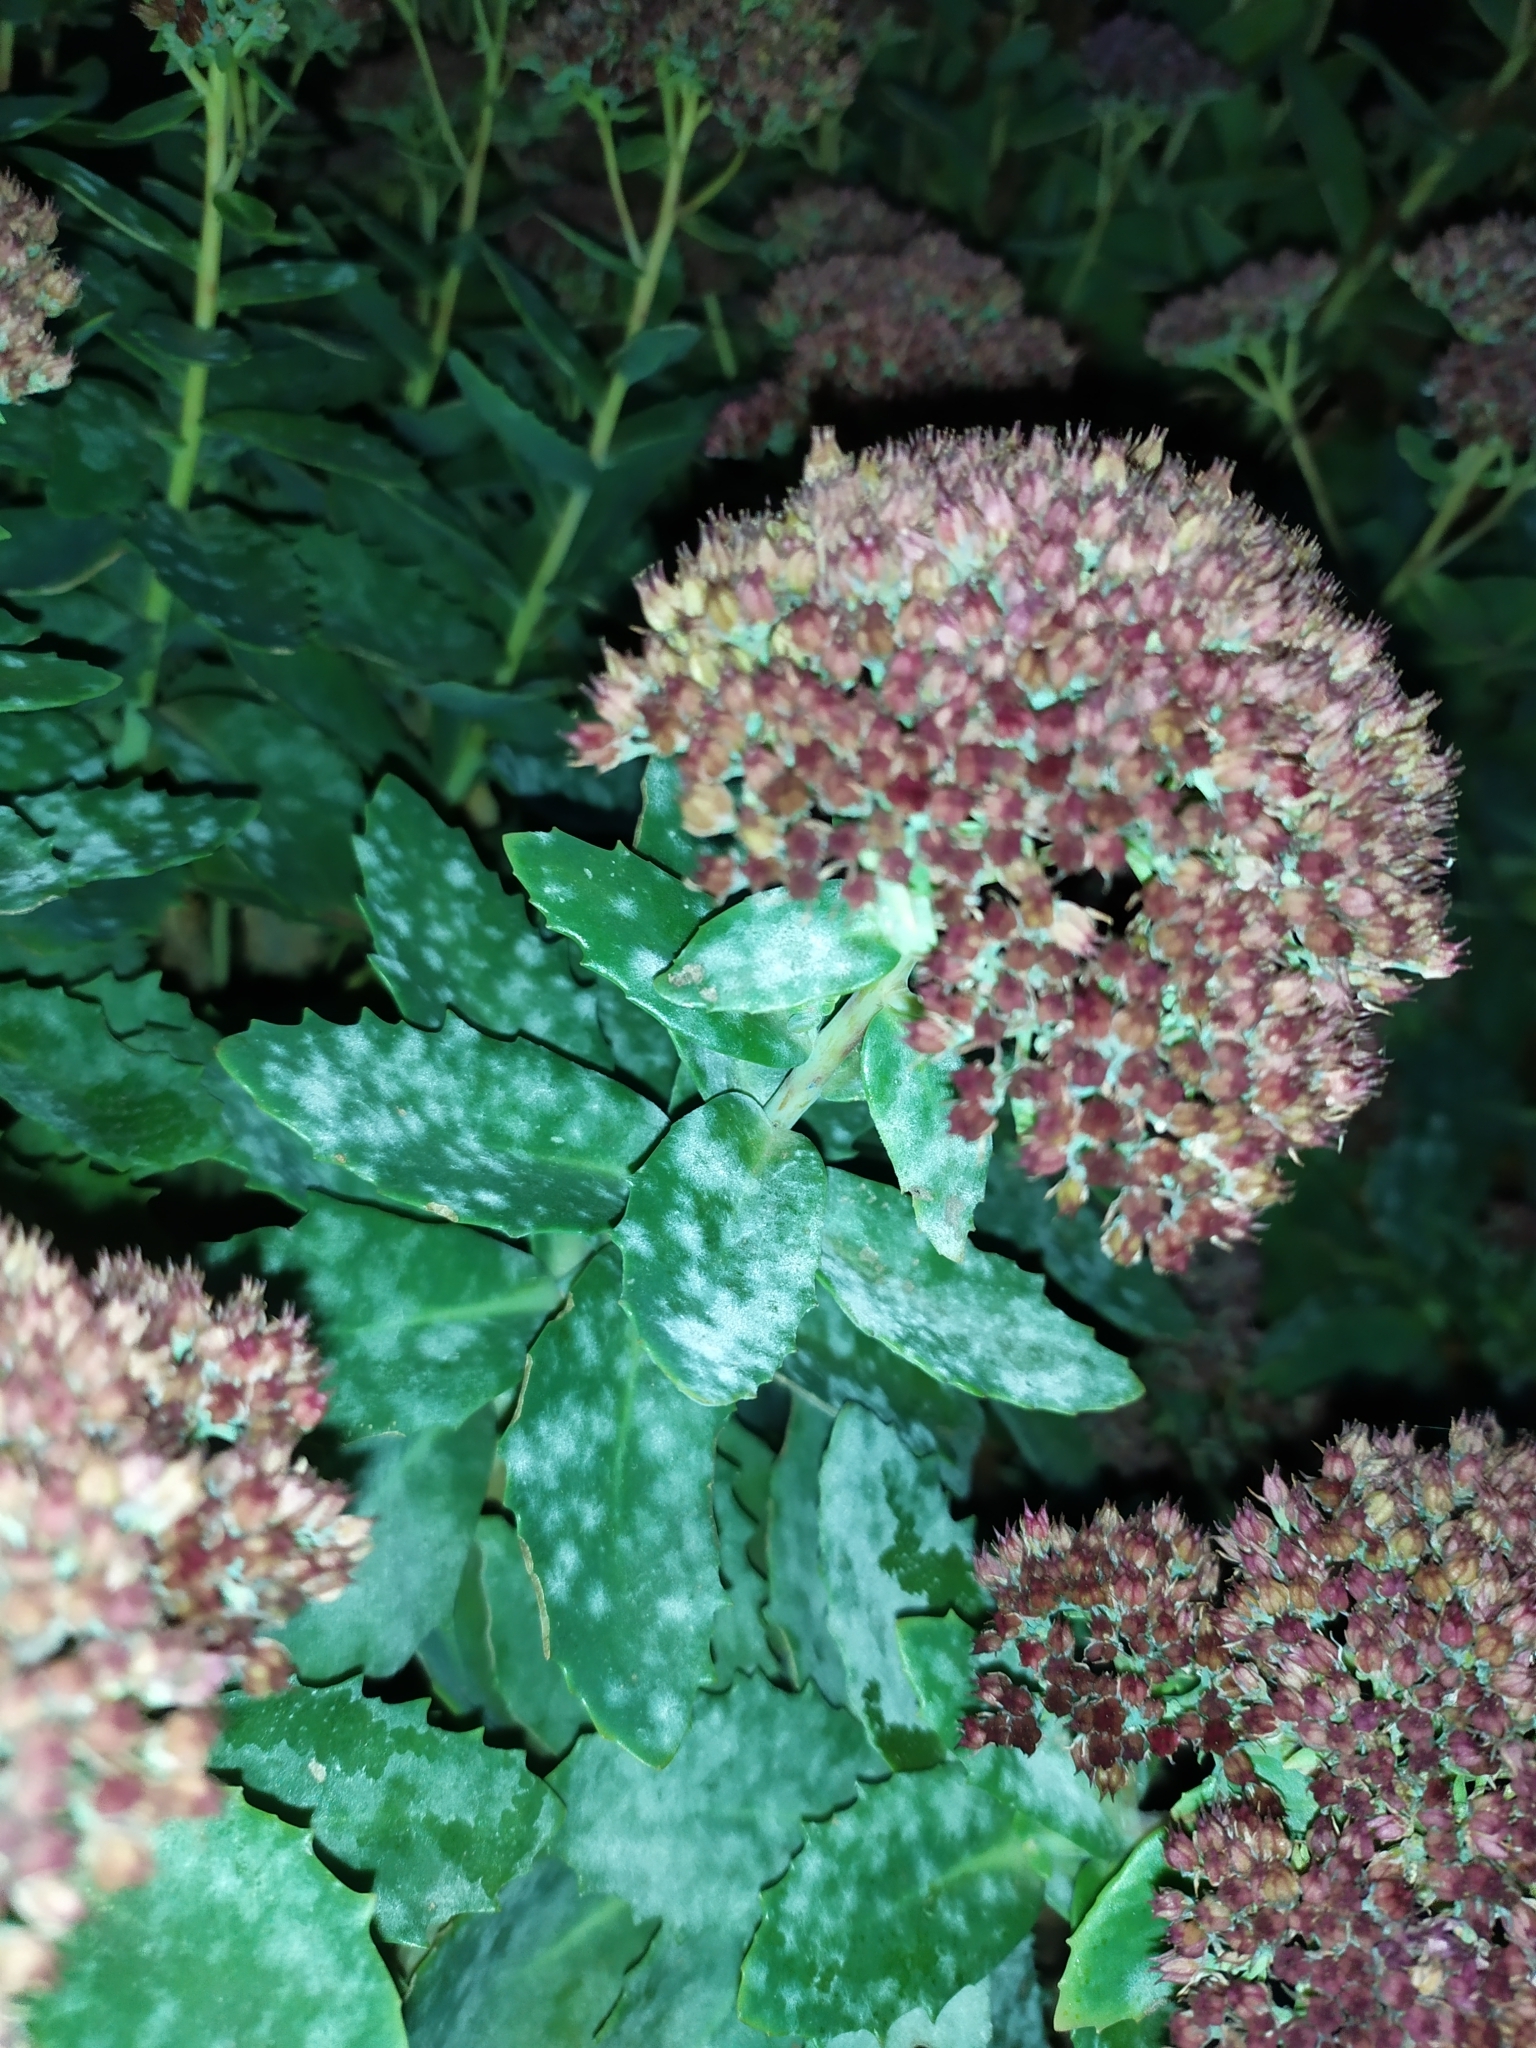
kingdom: Fungi
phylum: Ascomycota
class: Leotiomycetes
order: Helotiales
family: Erysiphaceae
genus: Erysiphe
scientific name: Erysiphe sedi
